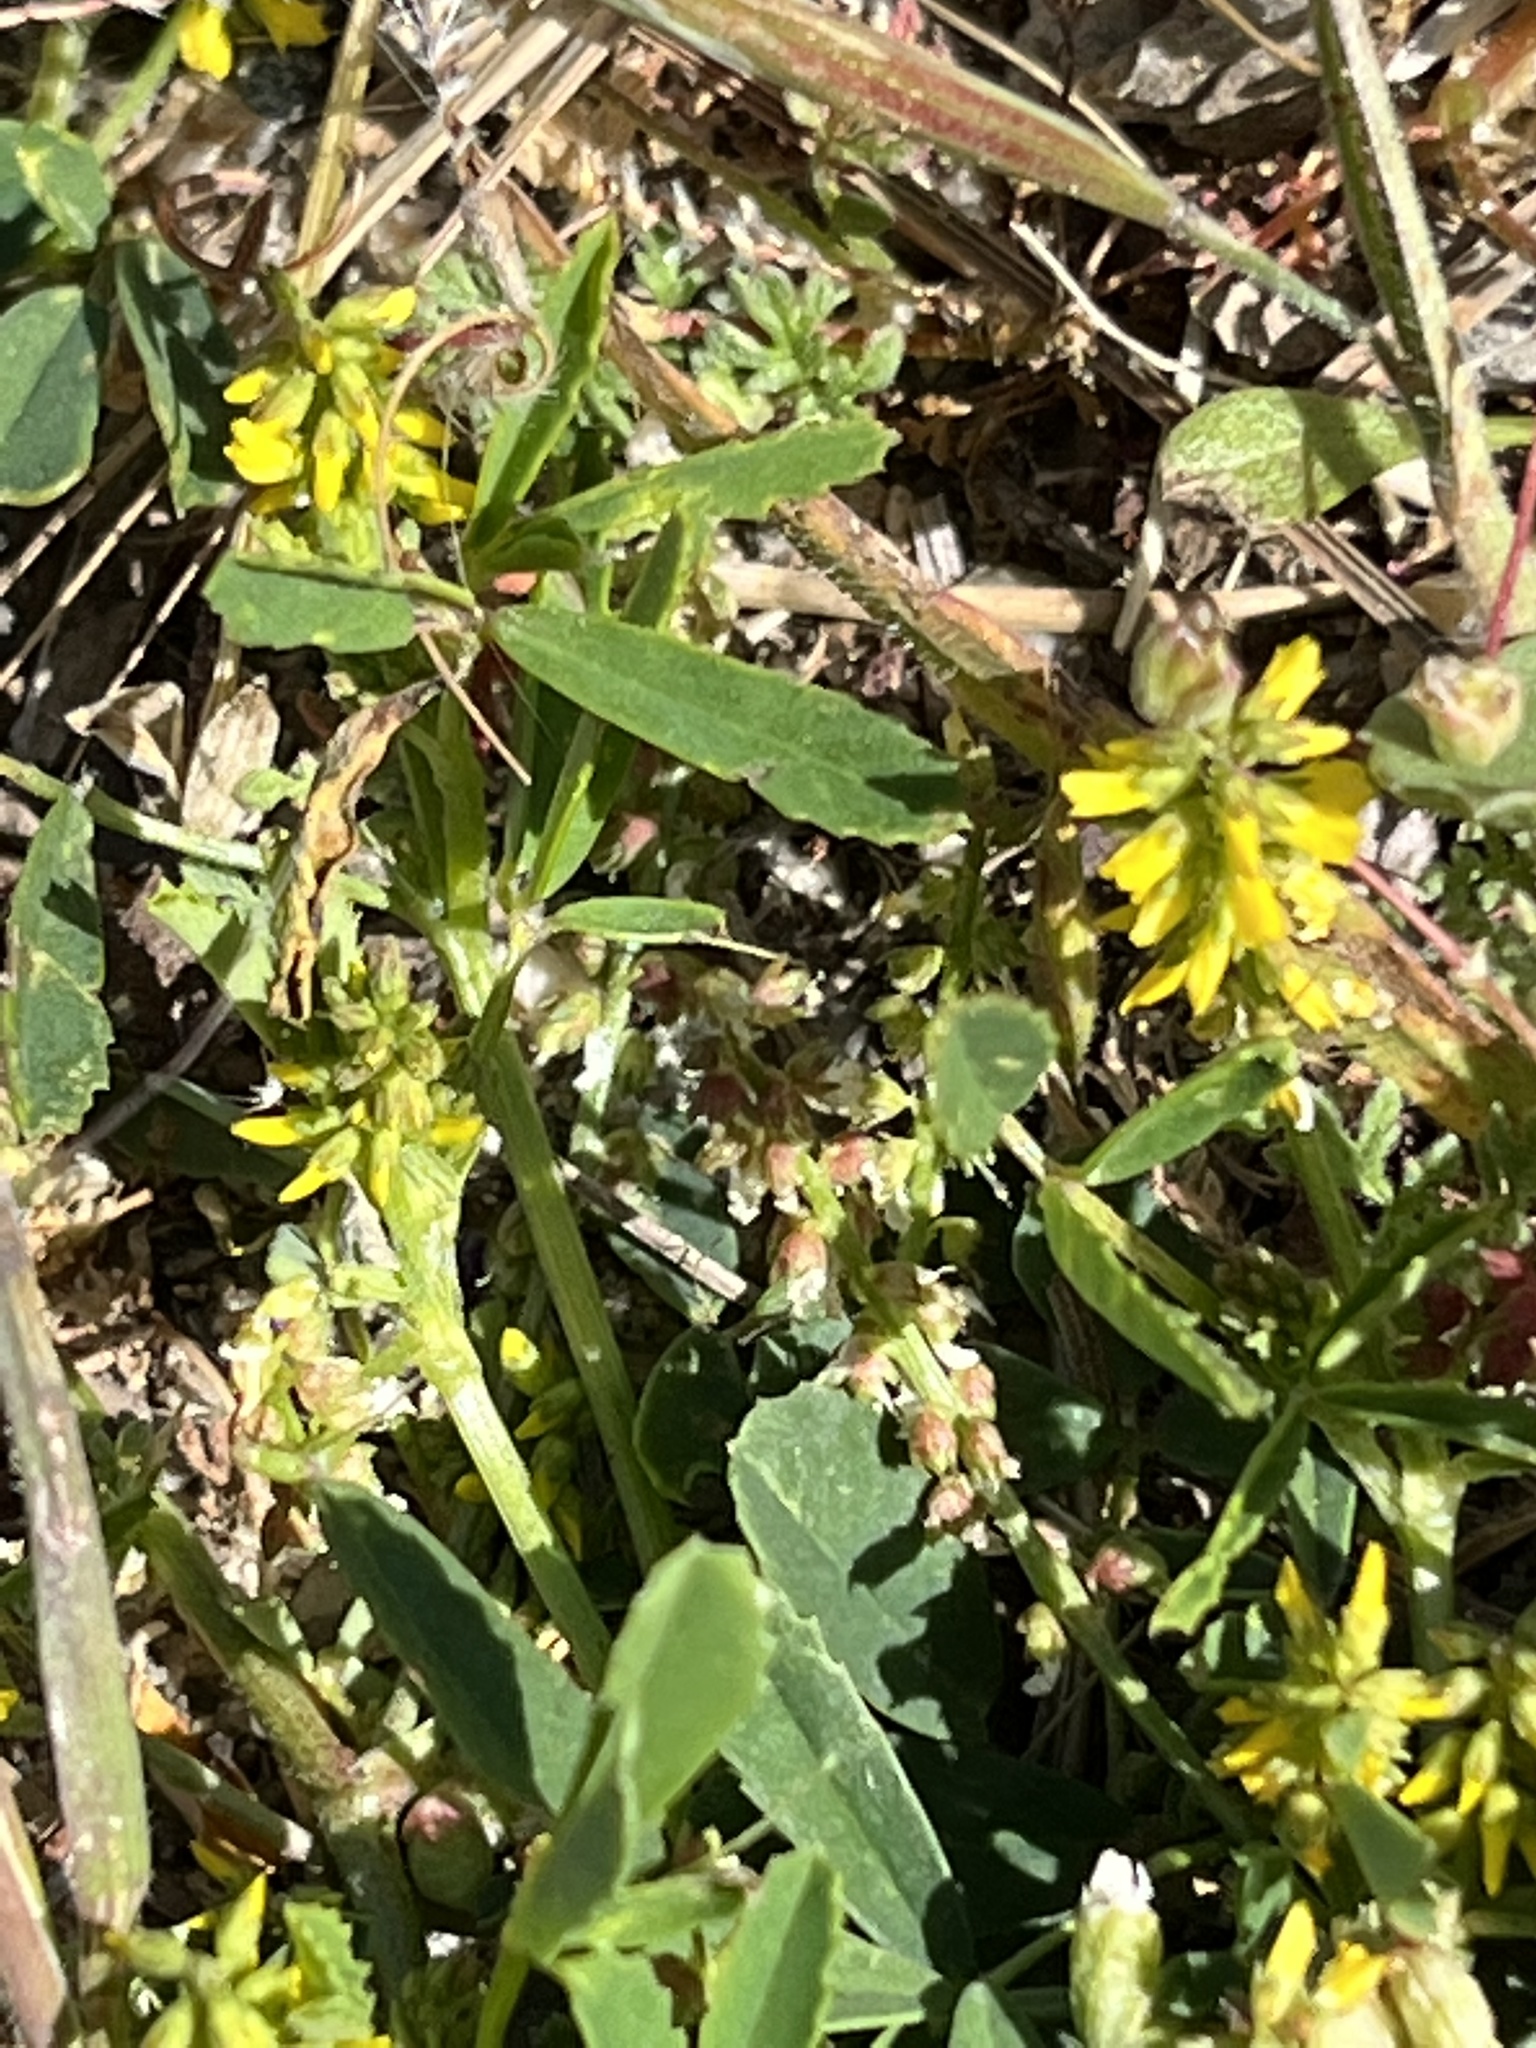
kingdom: Plantae
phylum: Tracheophyta
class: Magnoliopsida
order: Fabales
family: Fabaceae
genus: Melilotus
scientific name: Melilotus indicus
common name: Small melilot
